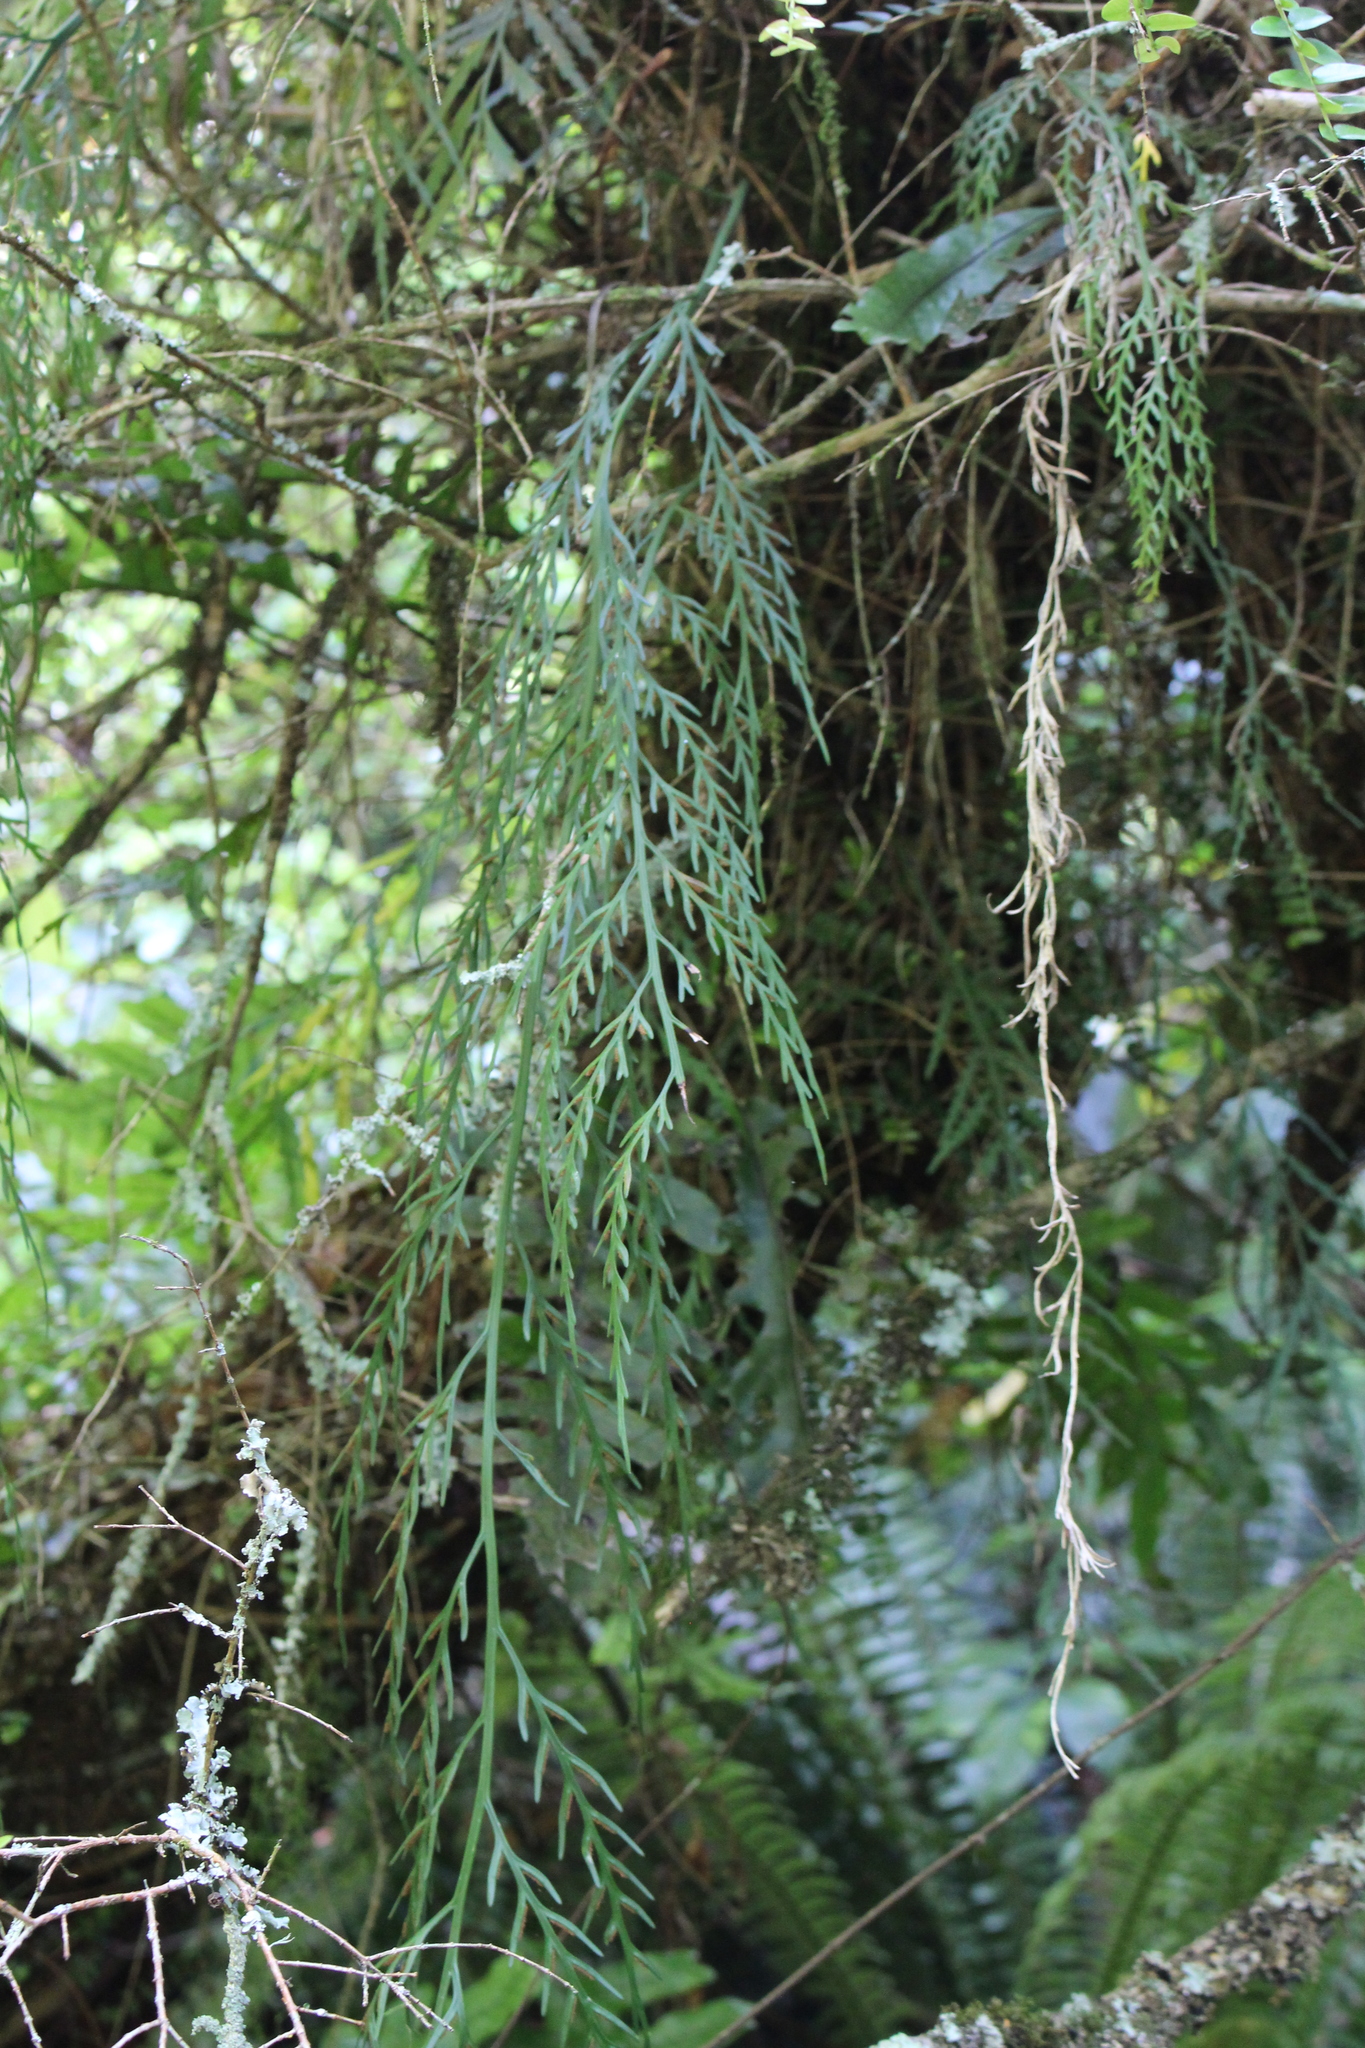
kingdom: Plantae
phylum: Tracheophyta
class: Polypodiopsida
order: Polypodiales
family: Aspleniaceae
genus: Asplenium
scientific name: Asplenium flaccidum
